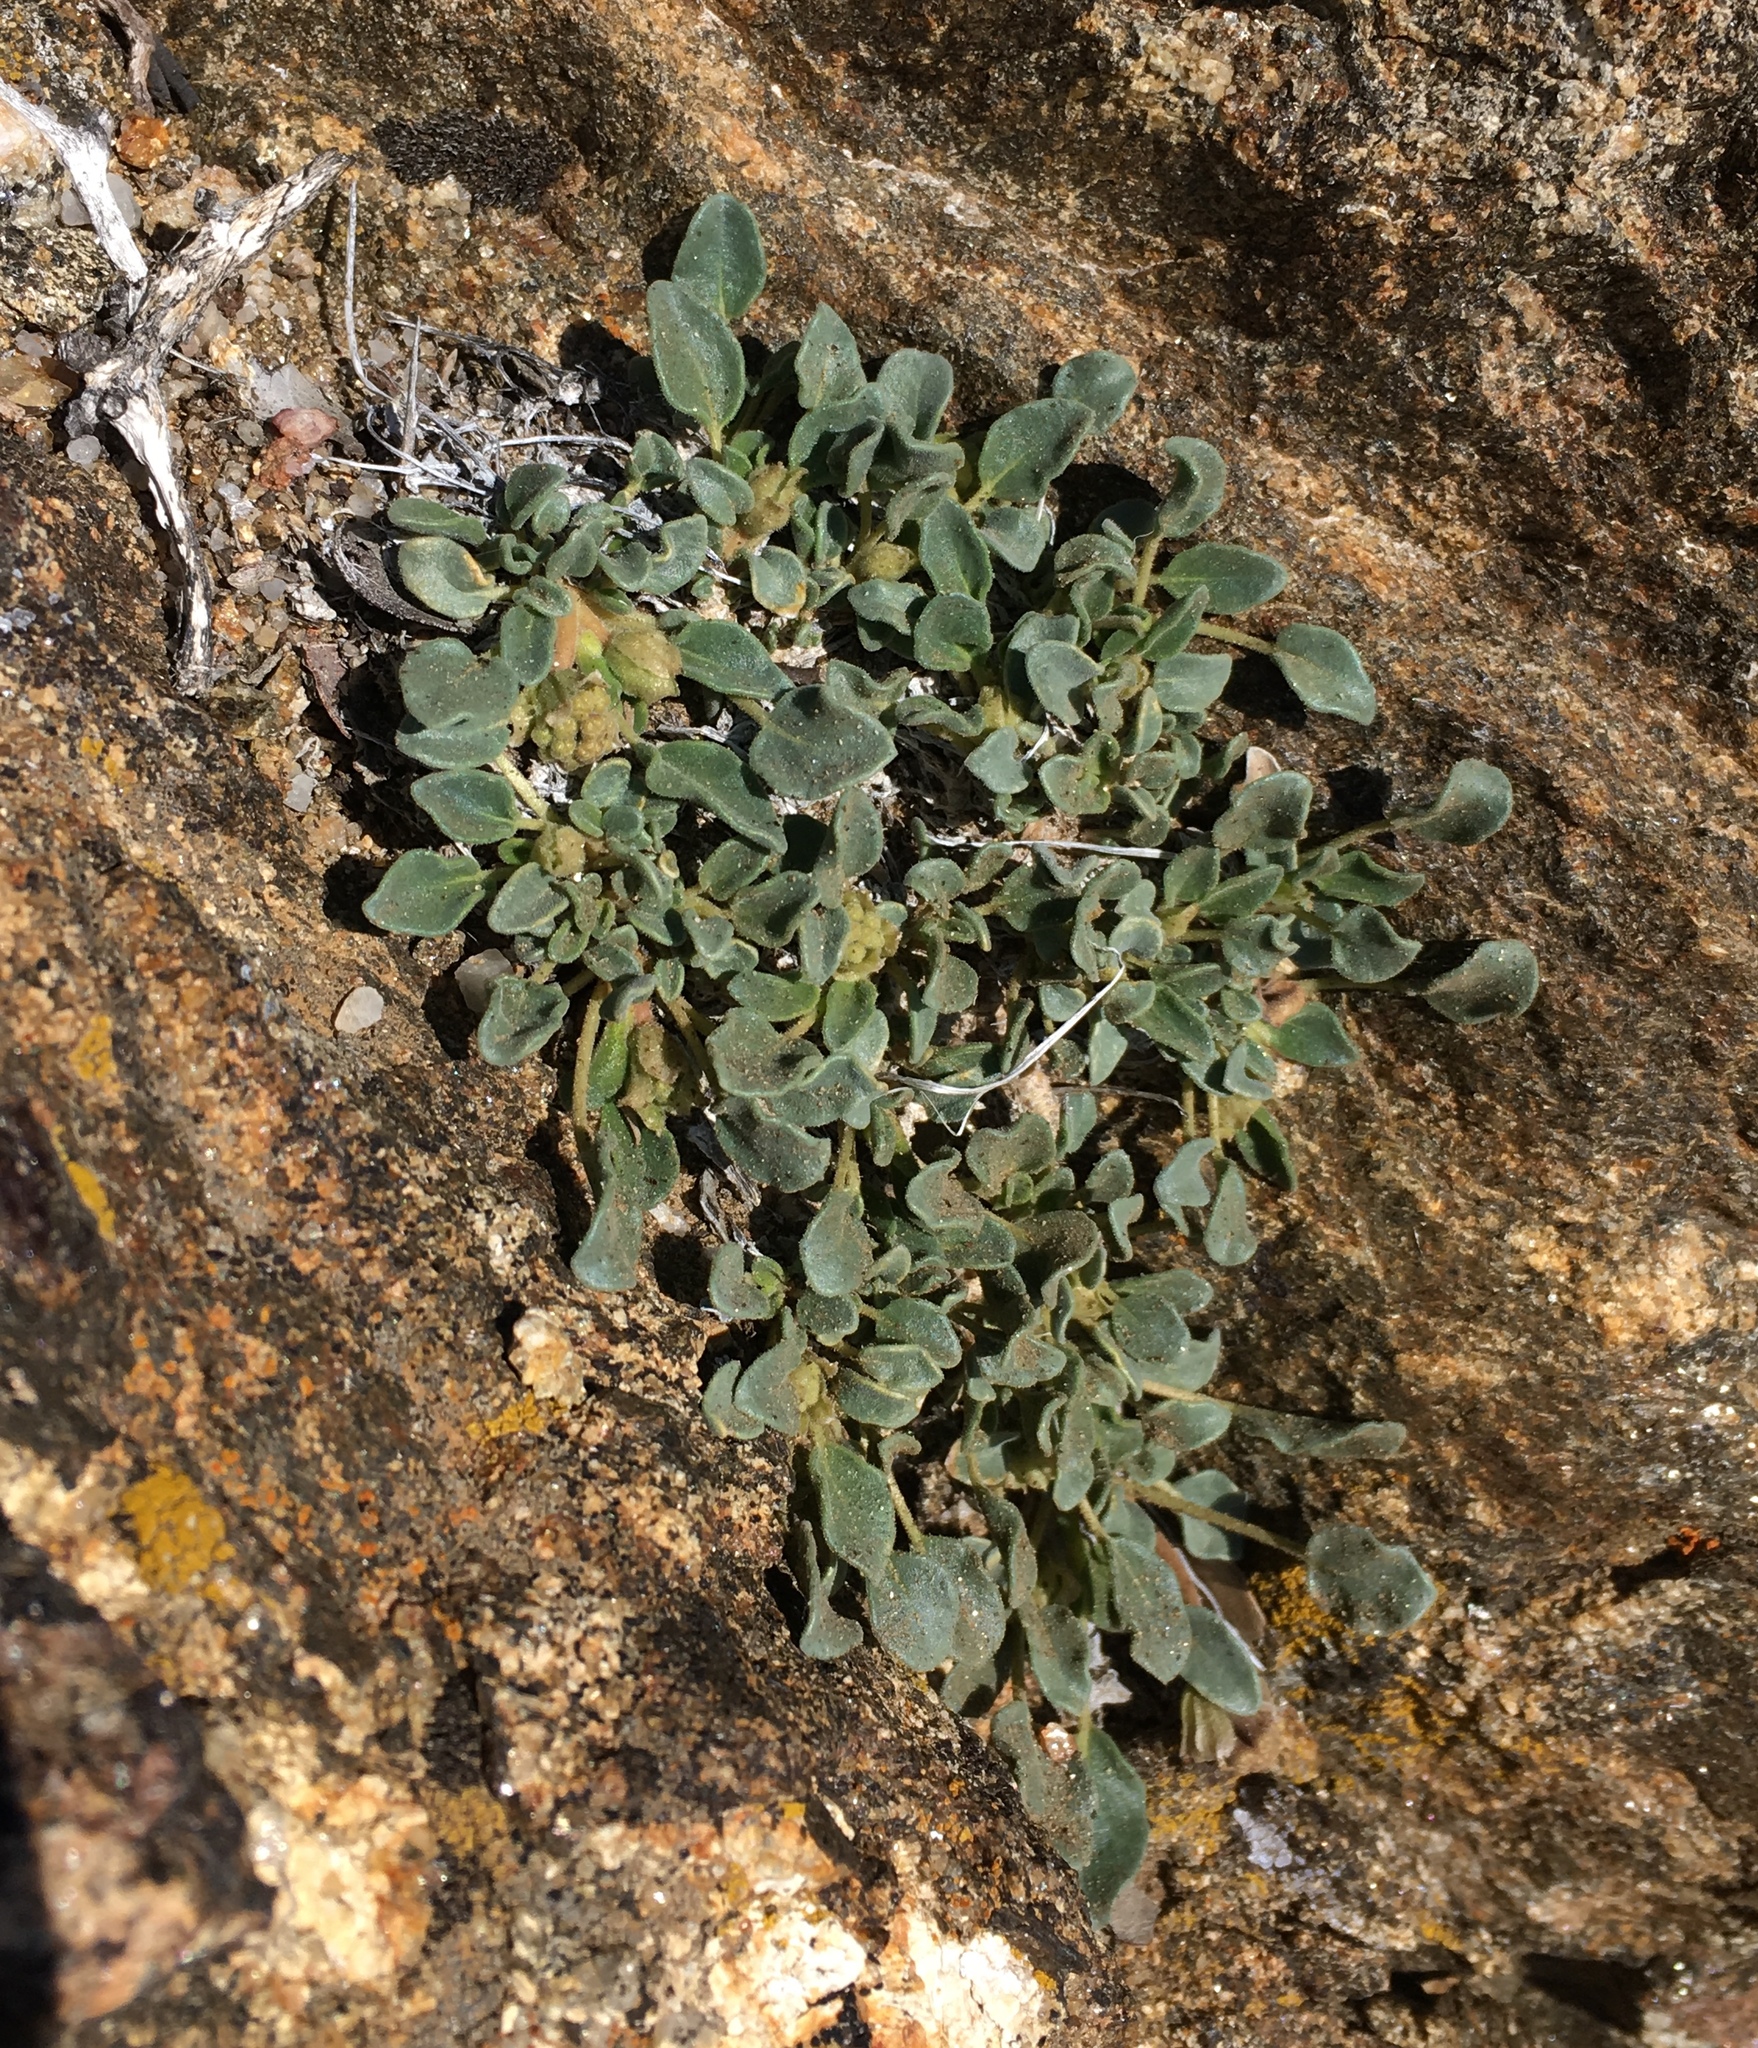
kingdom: Plantae
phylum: Tracheophyta
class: Magnoliopsida
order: Caryophyllales
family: Nyctaginaceae
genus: Abronia
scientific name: Abronia nana
